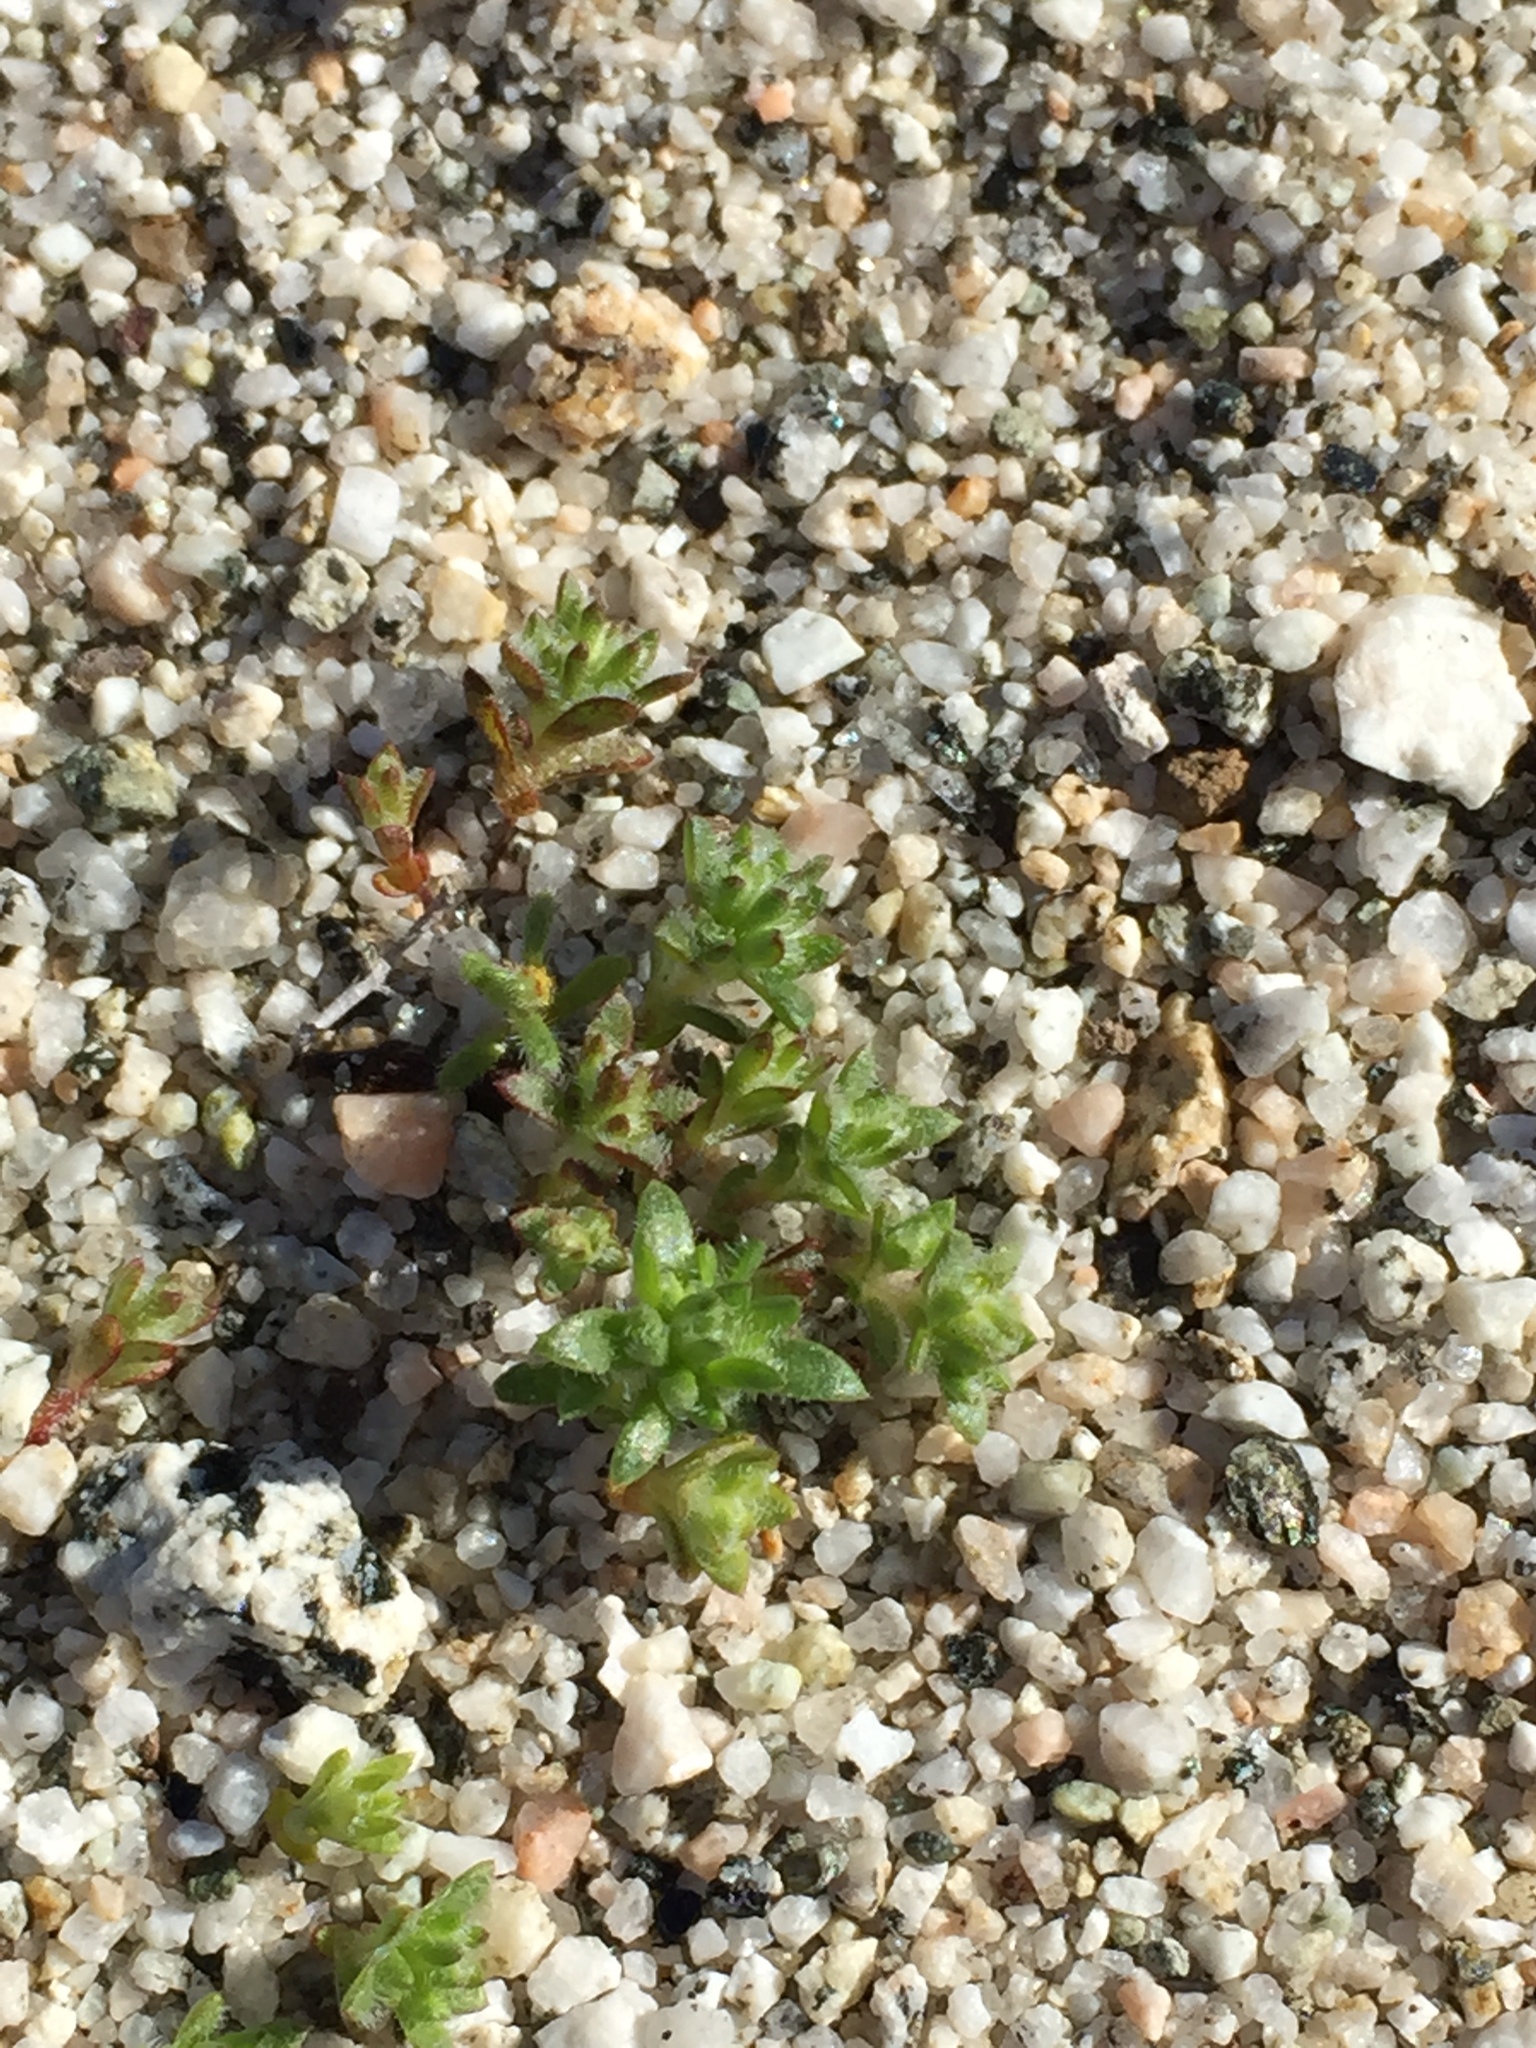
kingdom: Plantae
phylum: Tracheophyta
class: Magnoliopsida
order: Ericales
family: Polemoniaceae
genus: Maculigilia
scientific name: Maculigilia maculata
